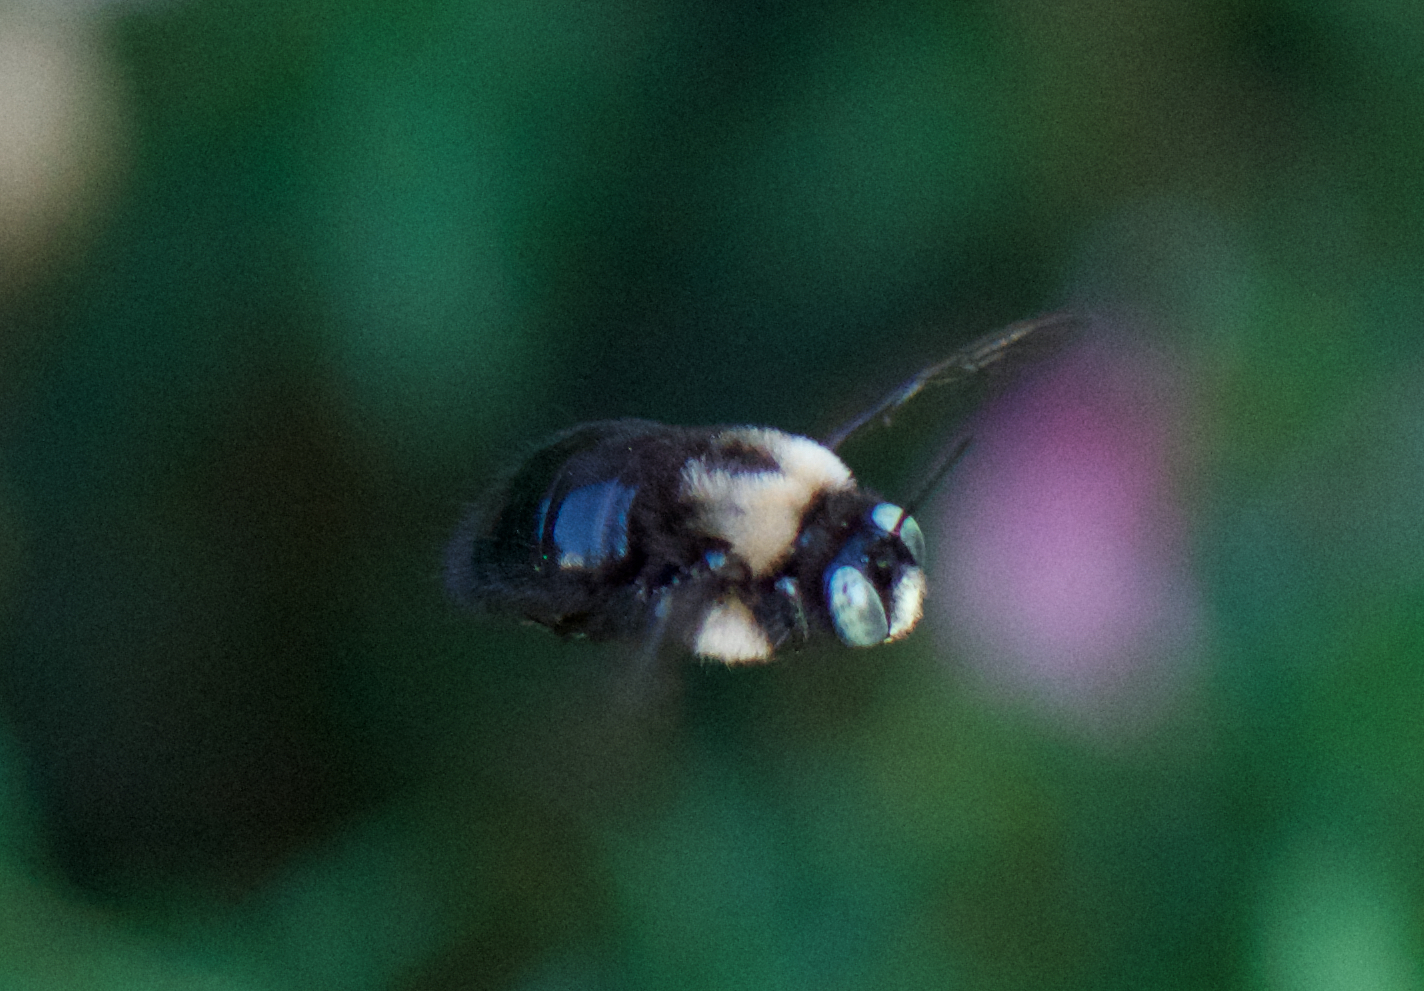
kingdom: Animalia
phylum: Arthropoda
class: Insecta
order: Hymenoptera
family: Apidae
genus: Xylocopa
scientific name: Xylocopa tabaniformis
